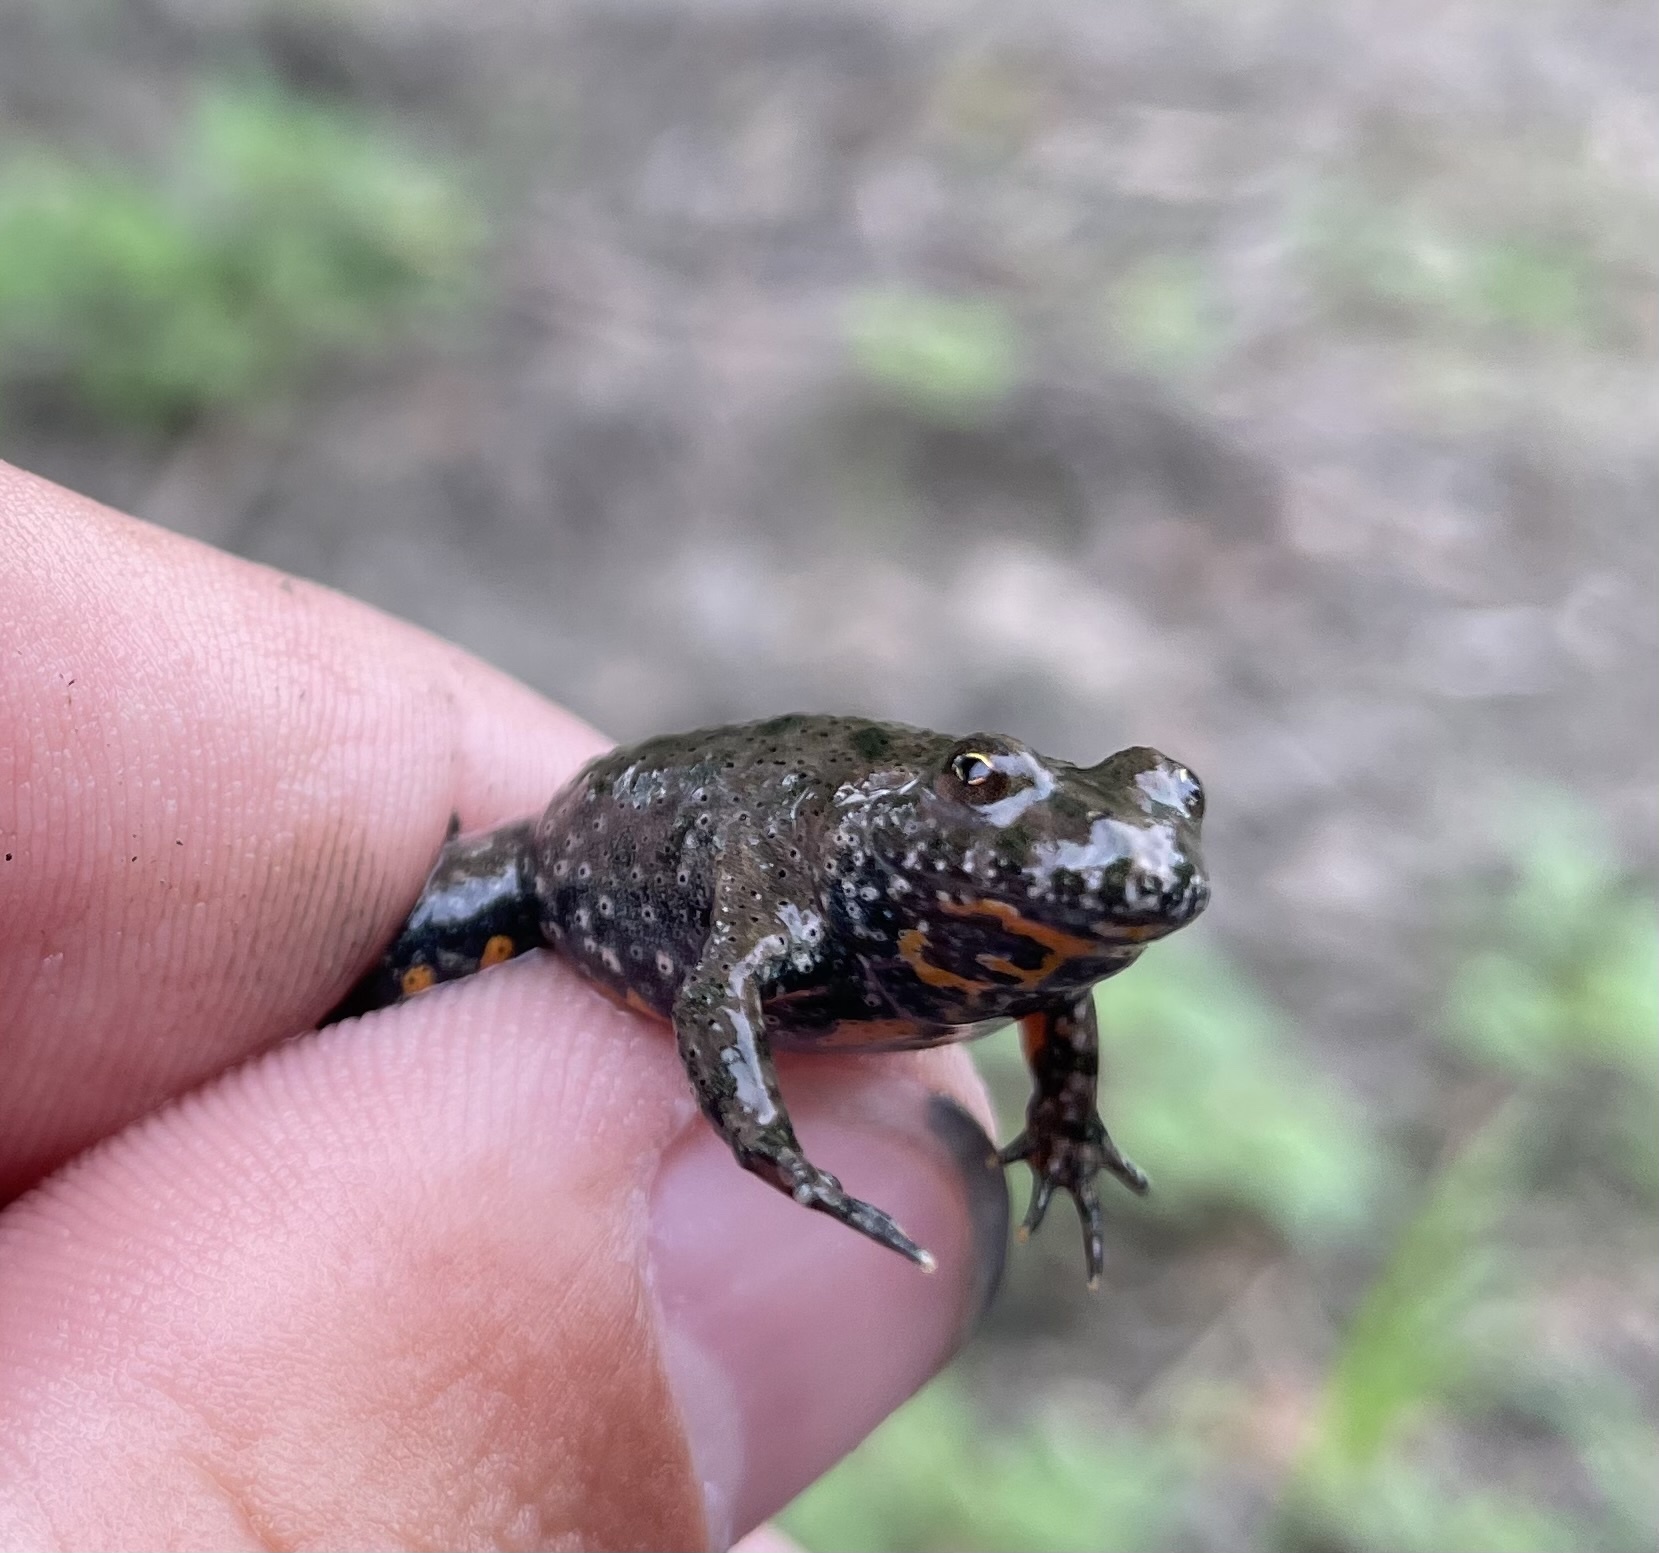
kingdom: Animalia
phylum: Chordata
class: Amphibia
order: Anura
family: Bombinatoridae
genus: Bombina
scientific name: Bombina bombina
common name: Fire-bellied toad
